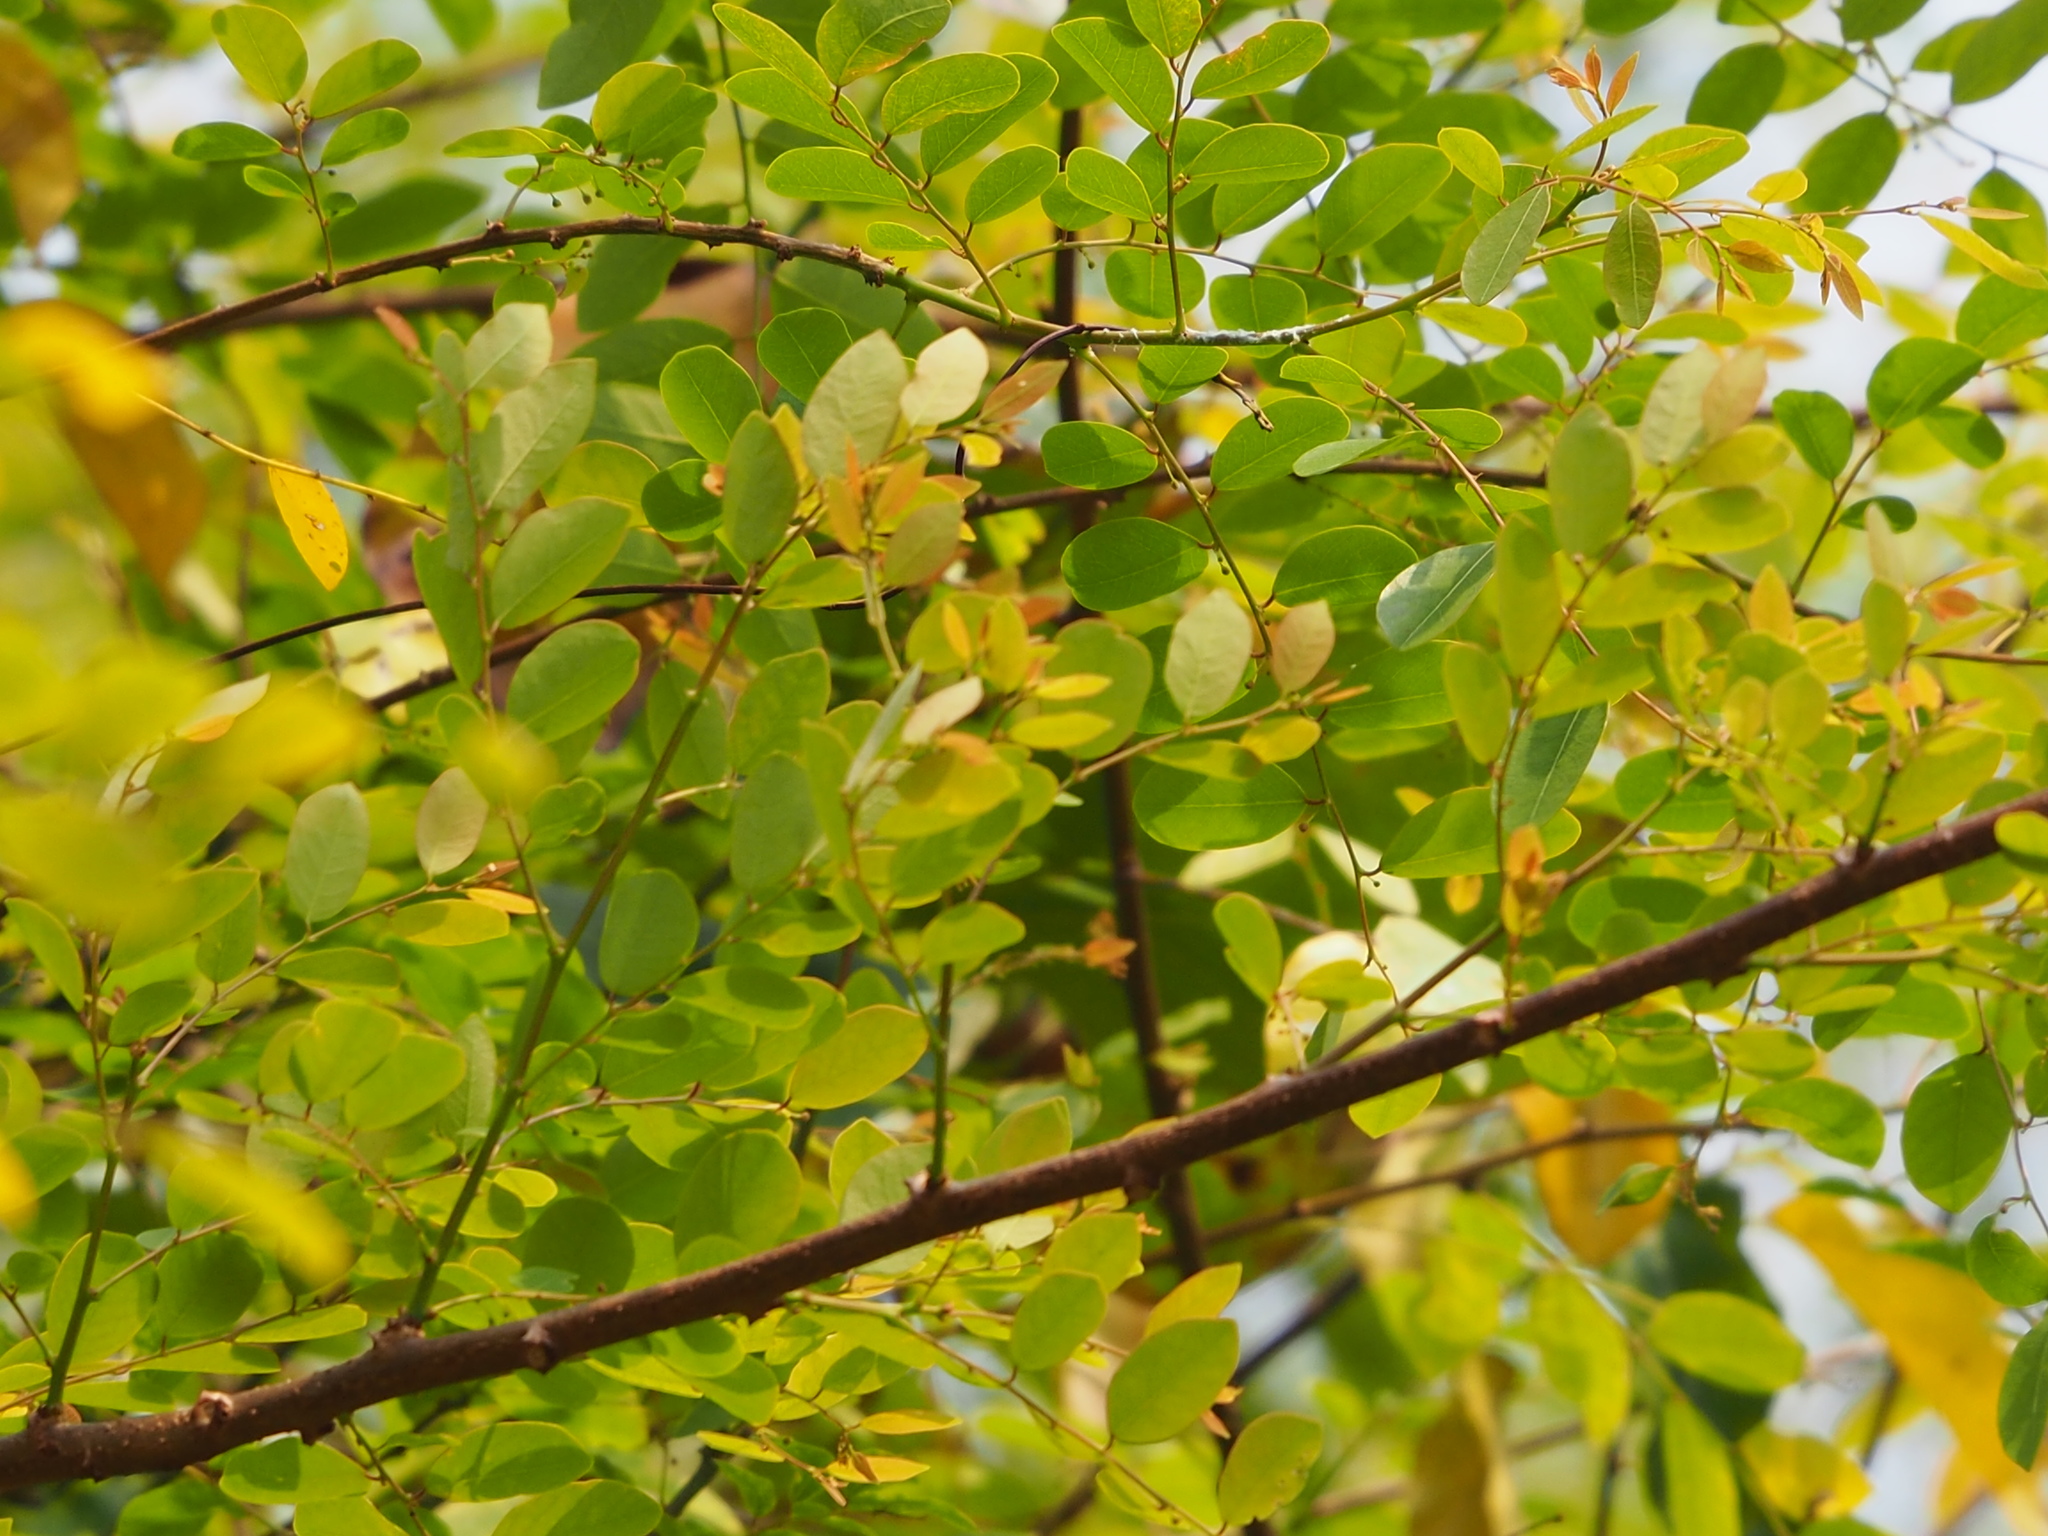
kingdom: Plantae
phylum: Tracheophyta
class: Magnoliopsida
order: Malpighiales
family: Phyllanthaceae
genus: Phyllanthus
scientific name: Phyllanthus reticulatus
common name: Potato bush
